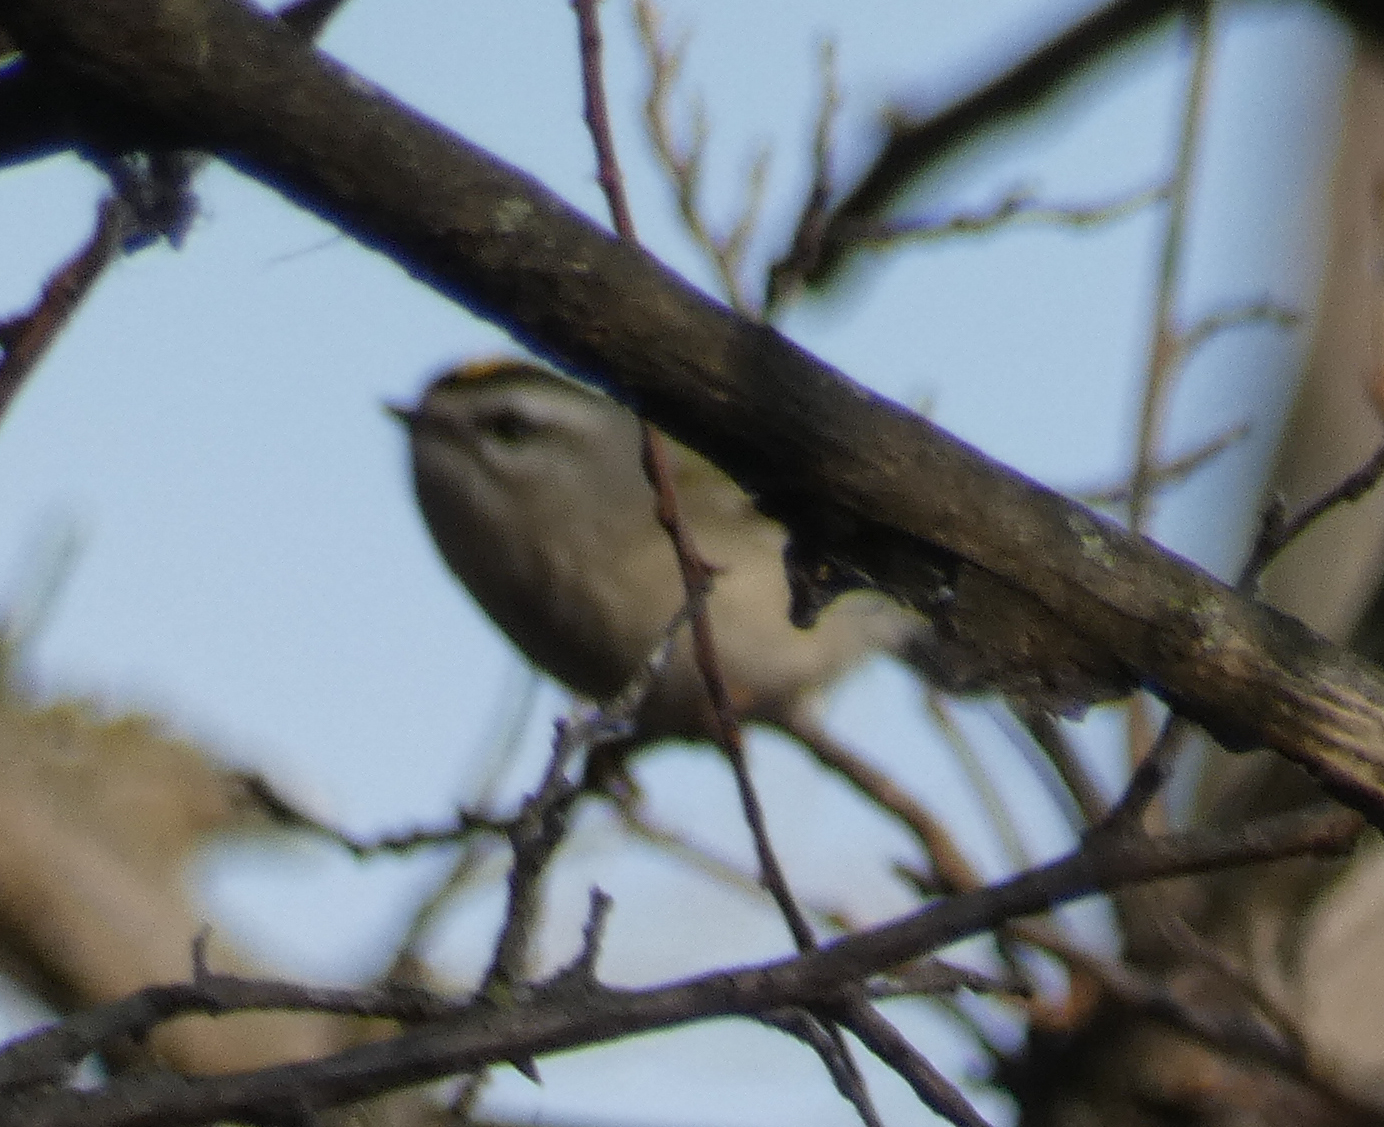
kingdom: Animalia
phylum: Chordata
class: Aves
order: Passeriformes
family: Regulidae
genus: Regulus
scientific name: Regulus satrapa
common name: Golden-crowned kinglet
